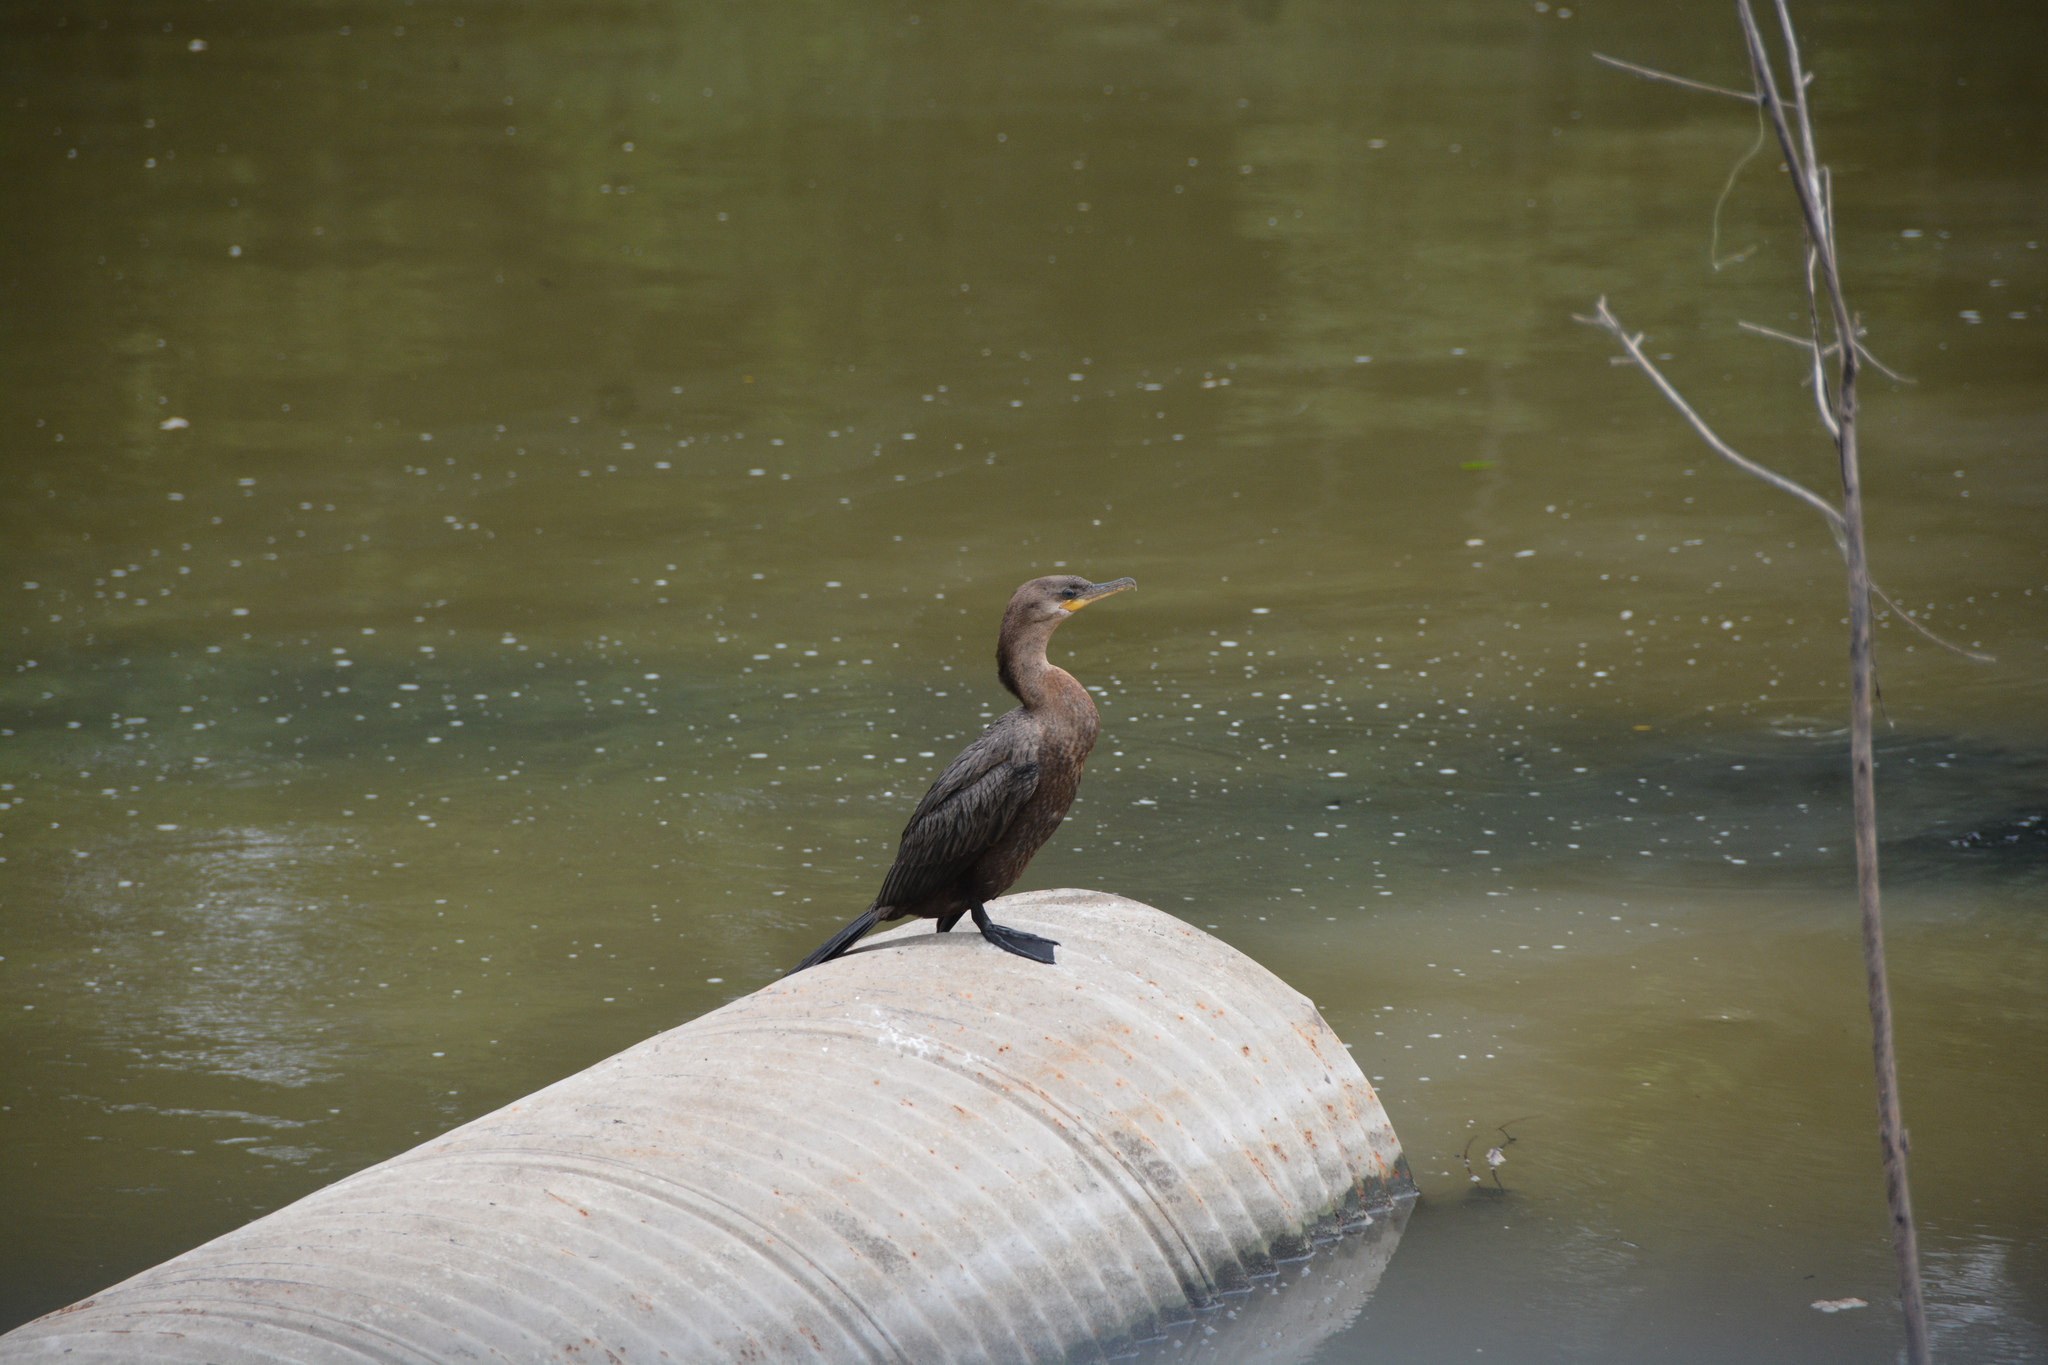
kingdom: Animalia
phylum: Chordata
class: Aves
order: Suliformes
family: Phalacrocoracidae
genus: Phalacrocorax
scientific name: Phalacrocorax brasilianus
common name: Neotropic cormorant
